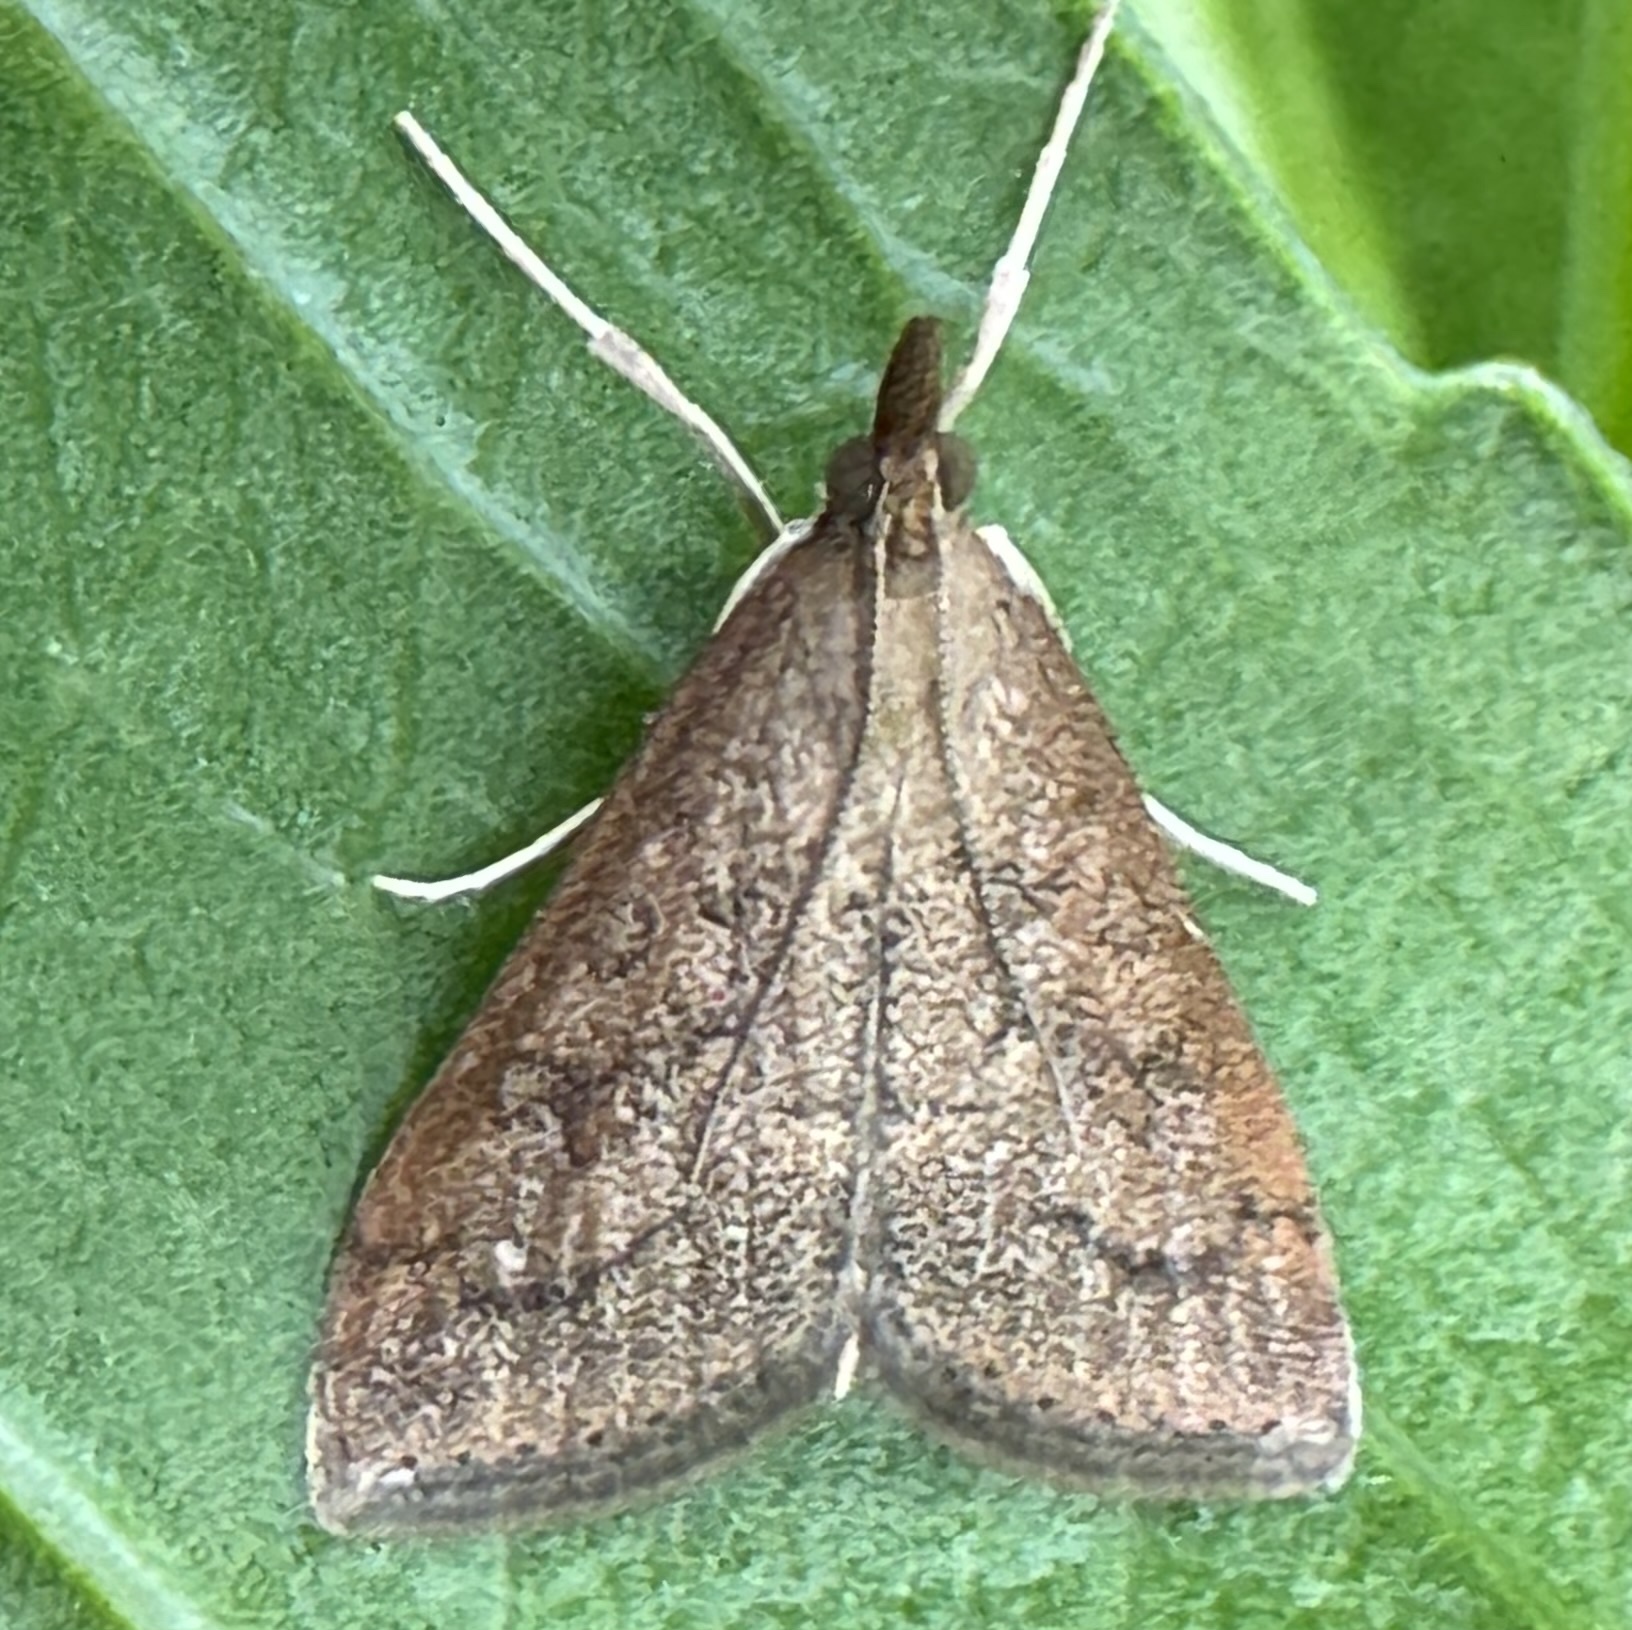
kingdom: Animalia
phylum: Arthropoda
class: Insecta
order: Lepidoptera
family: Crambidae
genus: Udea
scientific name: Udea rubigalis
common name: Celery leaftier moth
